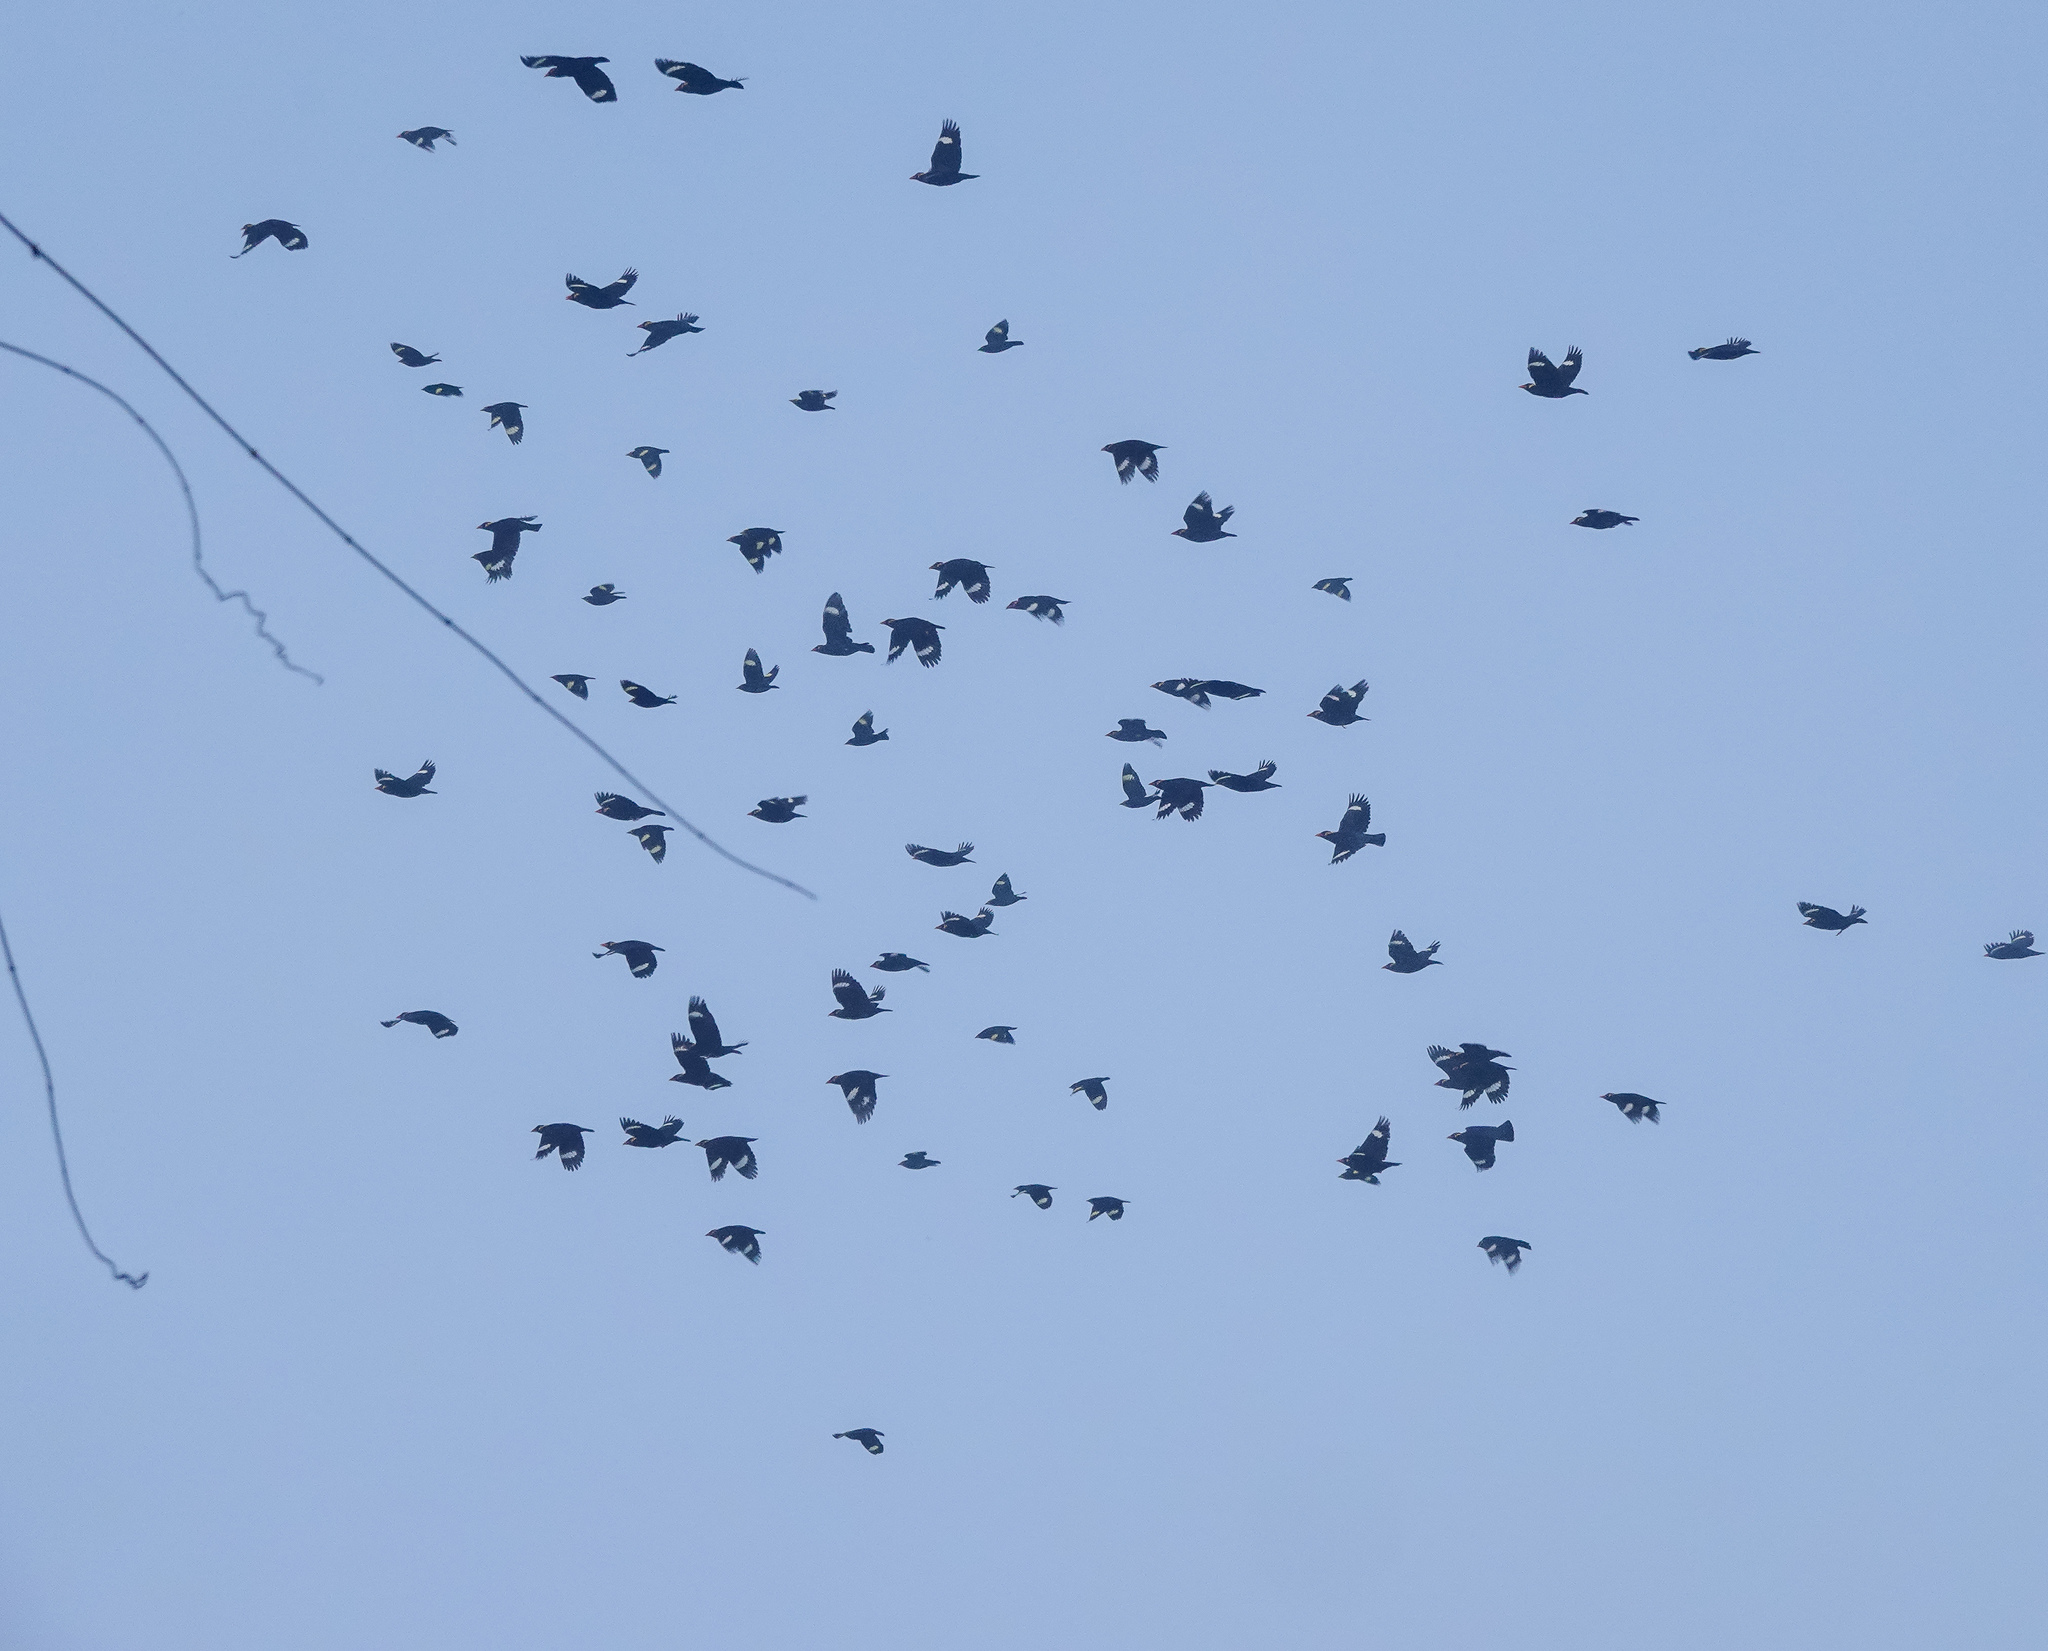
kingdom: Animalia
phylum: Chordata
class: Aves
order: Passeriformes
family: Sturnidae
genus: Ampeliceps
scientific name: Ampeliceps coronatus
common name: Golden-crested myna
